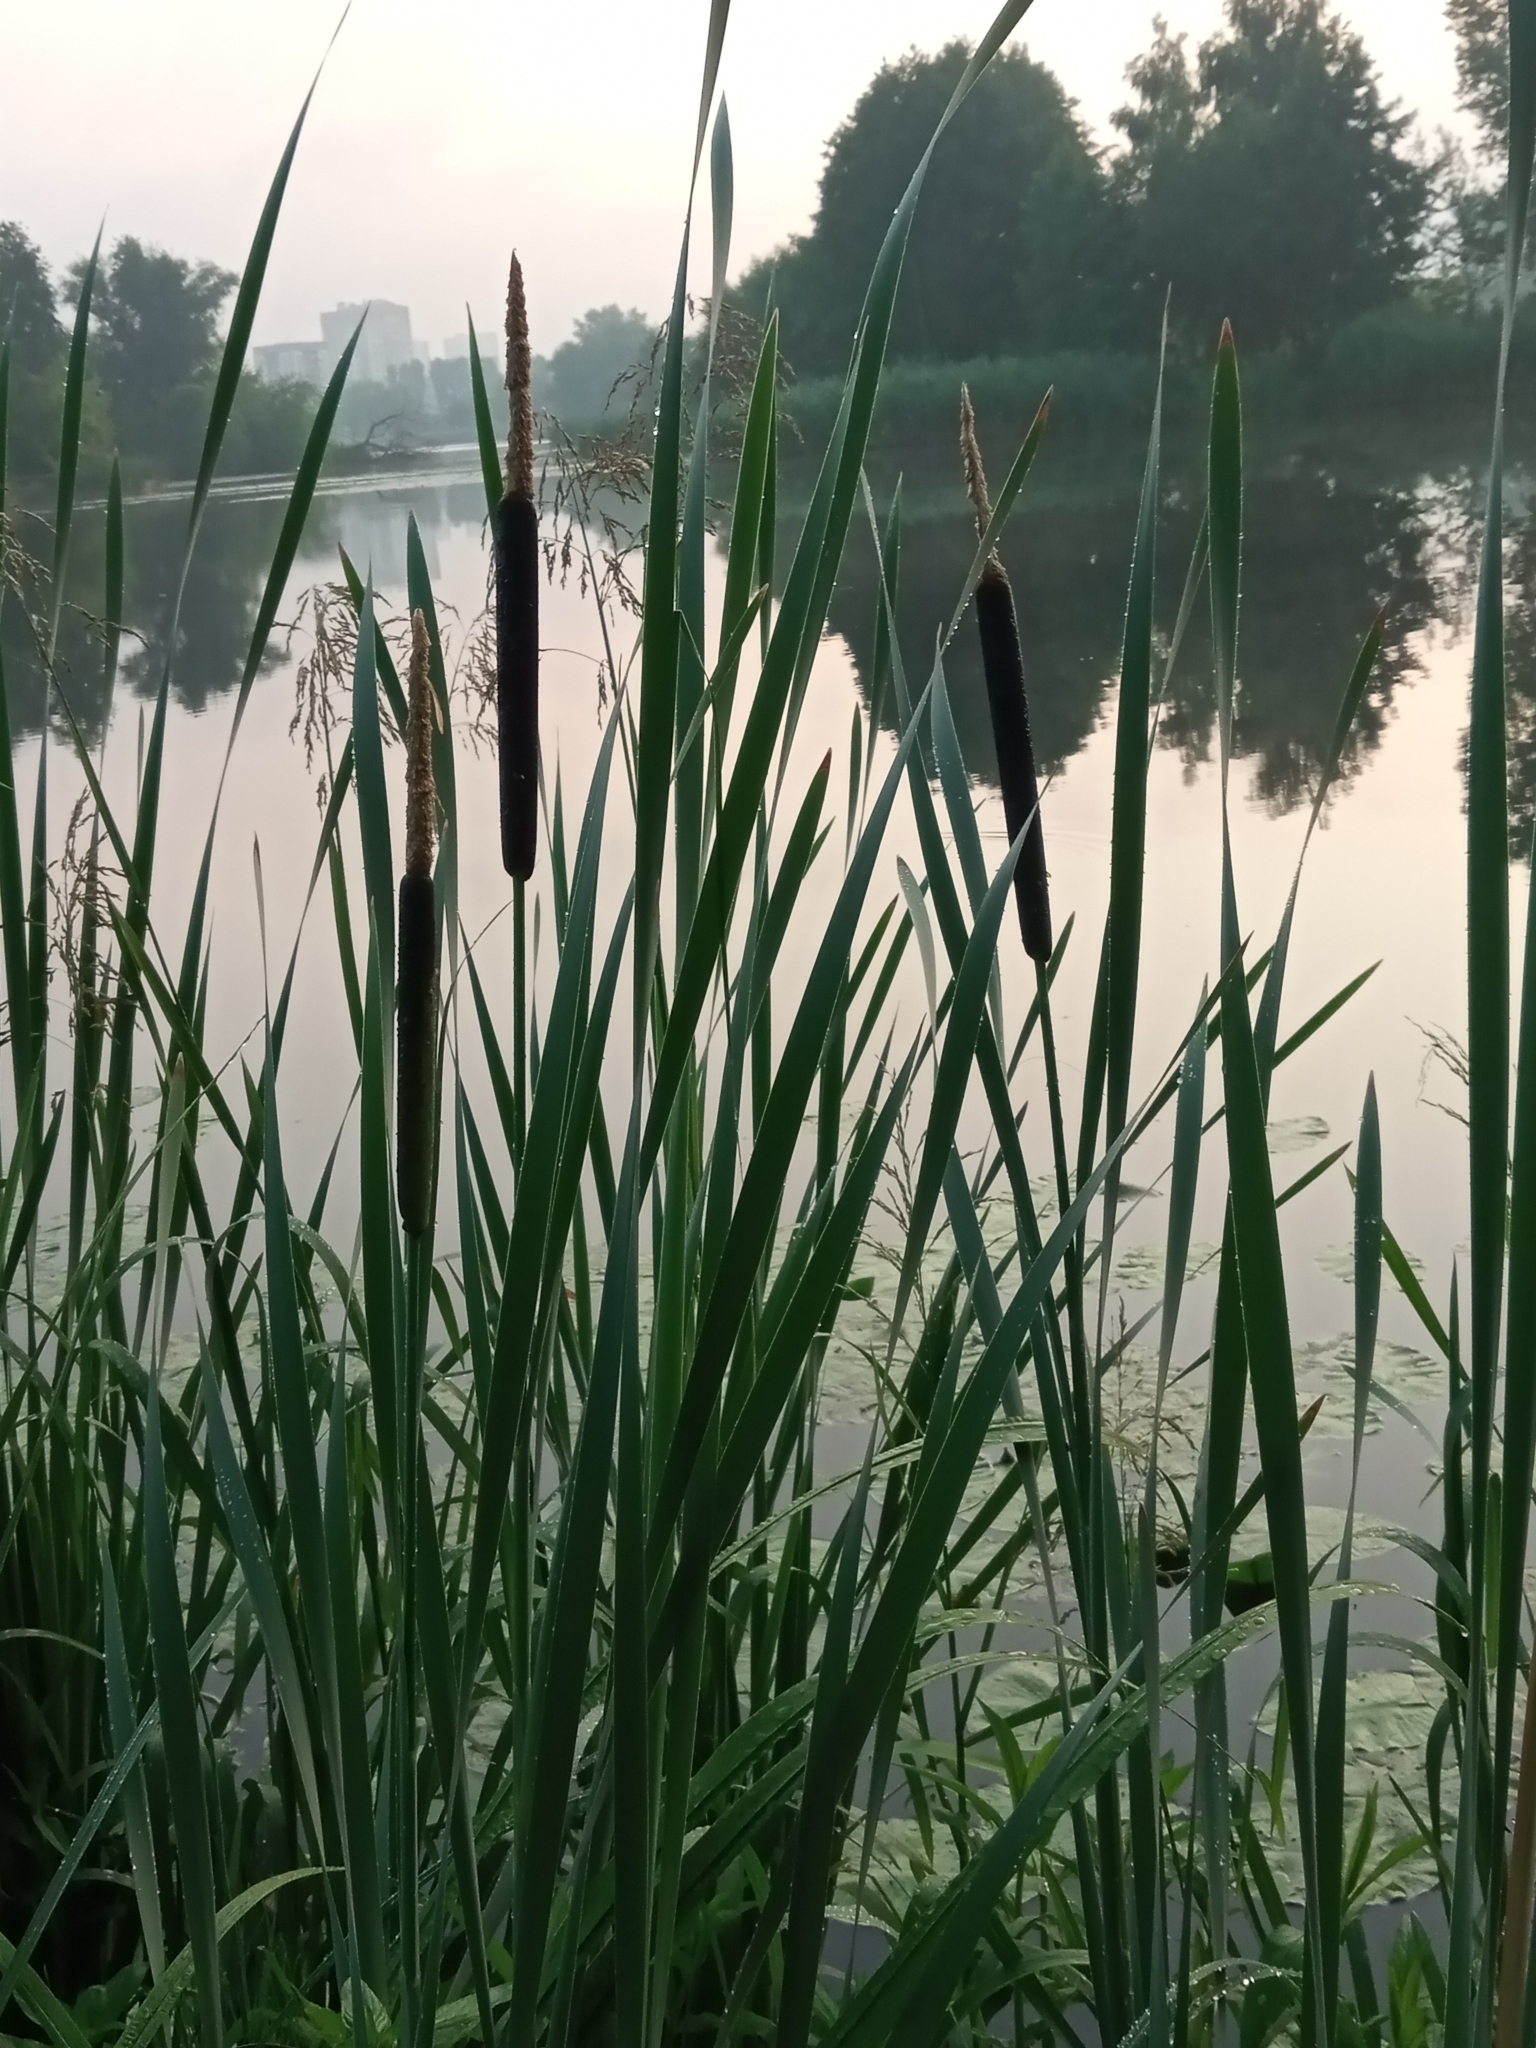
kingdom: Plantae
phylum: Tracheophyta
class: Liliopsida
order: Poales
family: Typhaceae
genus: Typha
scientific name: Typha latifolia
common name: Broadleaf cattail
